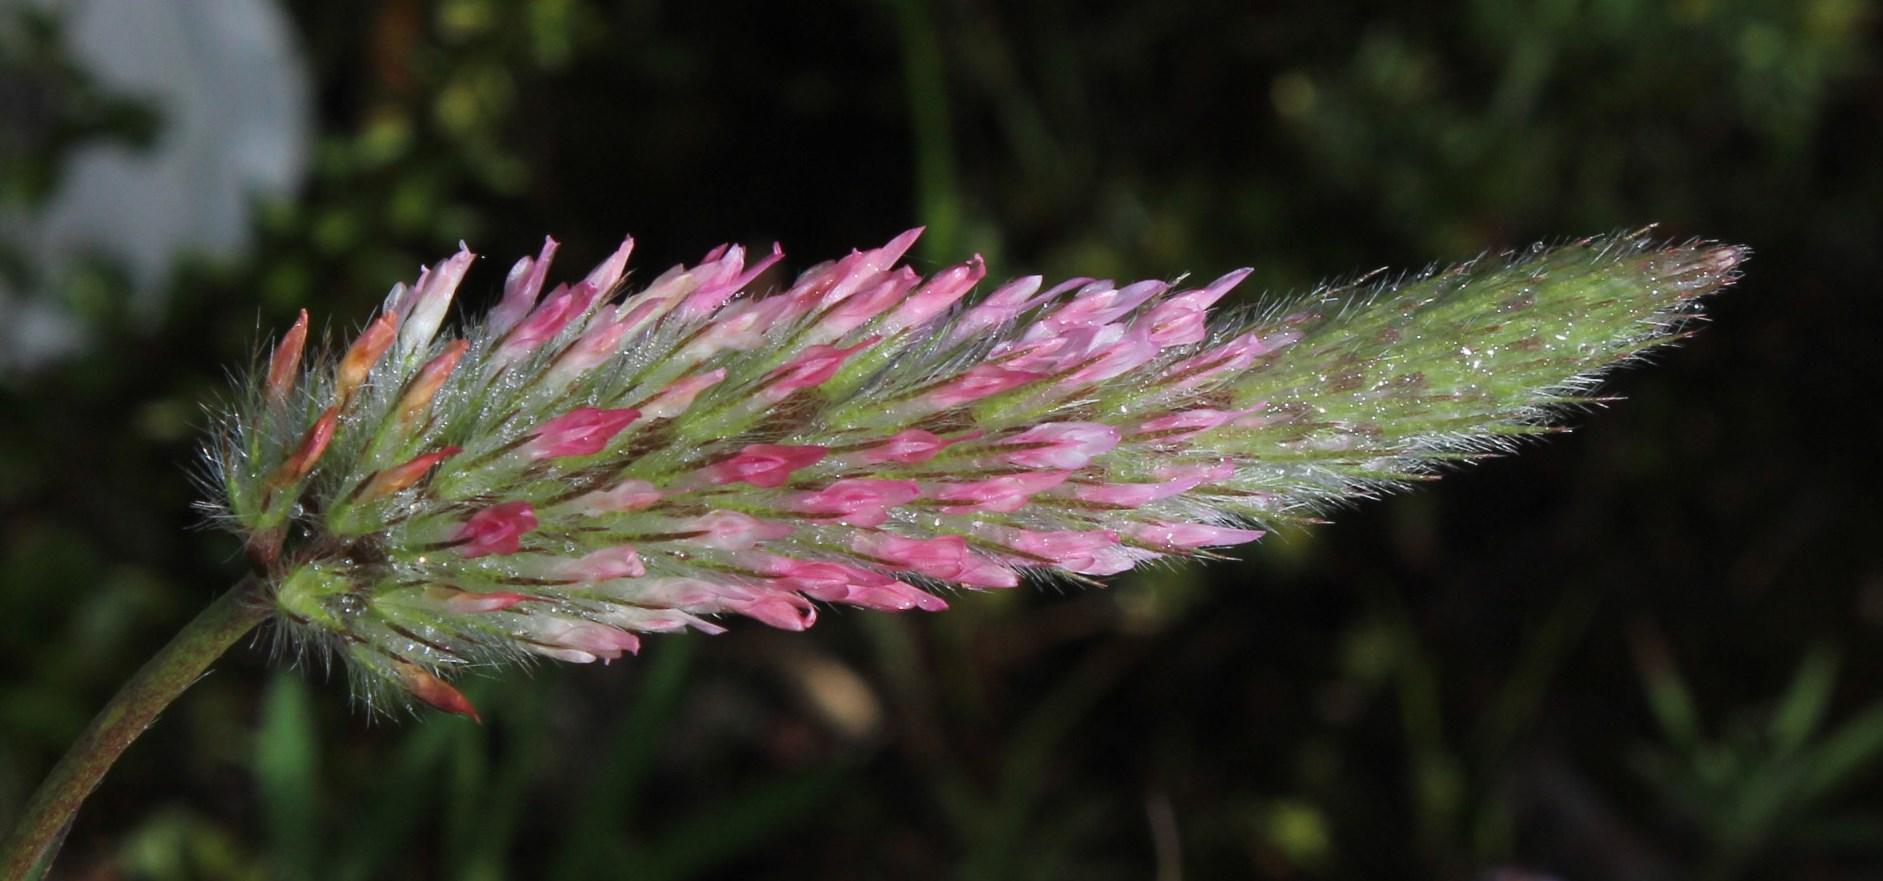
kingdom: Plantae
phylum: Tracheophyta
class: Magnoliopsida
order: Fabales
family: Fabaceae
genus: Trifolium
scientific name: Trifolium angustifolium
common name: Narrow clover
